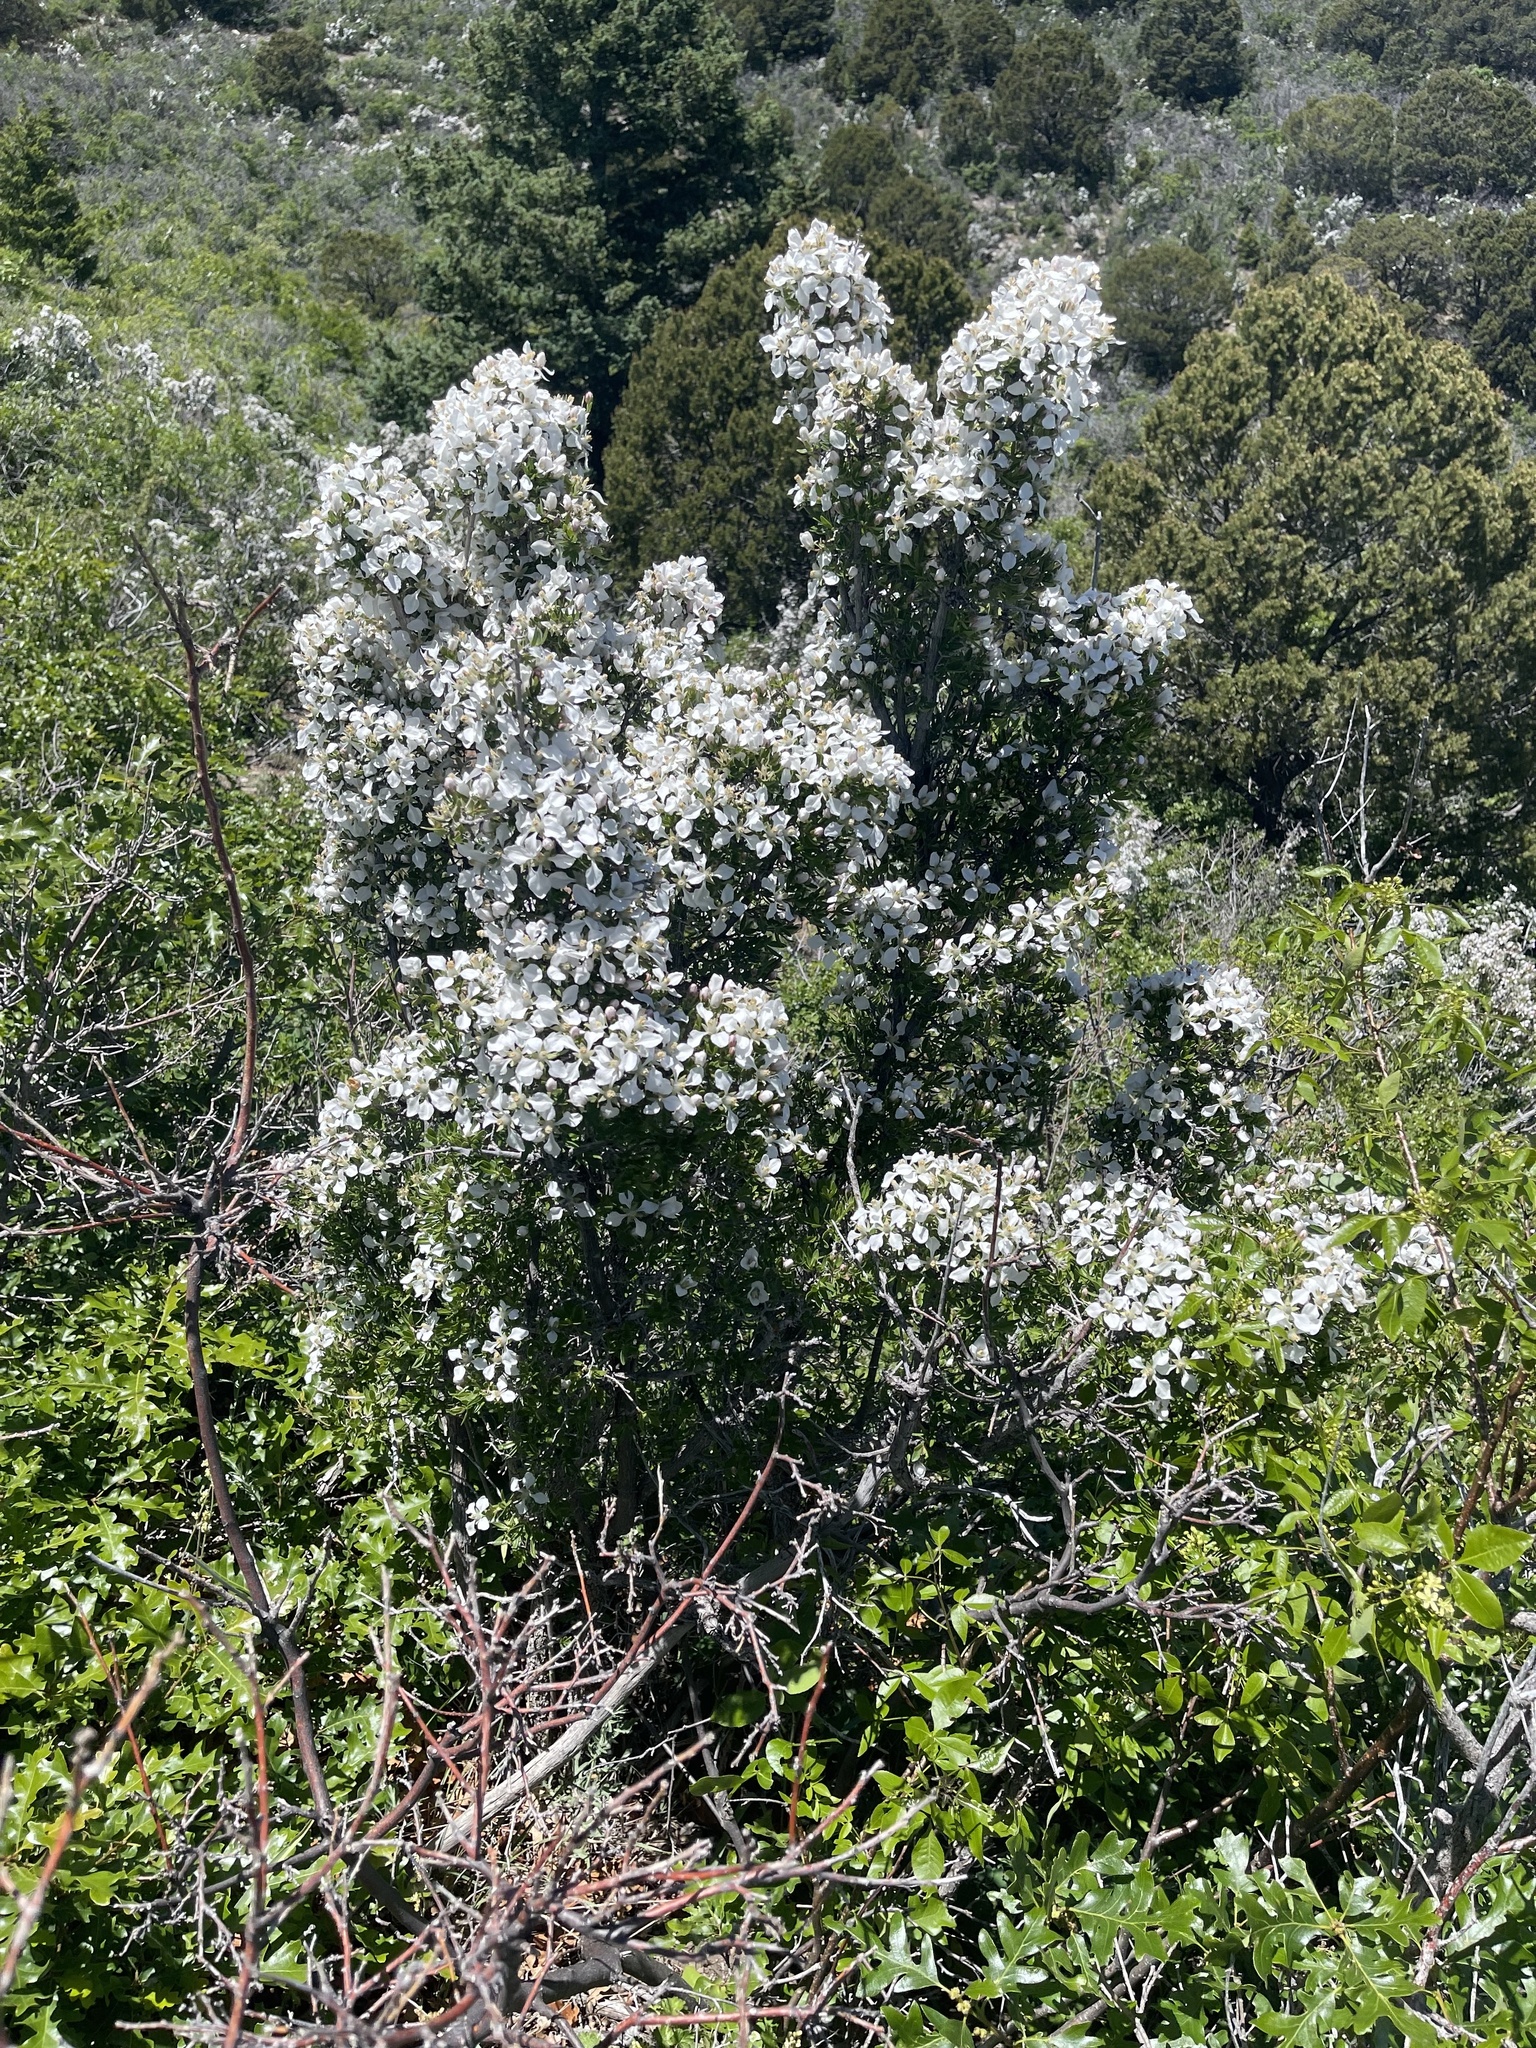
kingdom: Plantae
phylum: Tracheophyta
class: Magnoliopsida
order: Cornales
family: Hydrangeaceae
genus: Fendlera
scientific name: Fendlera rupicola
